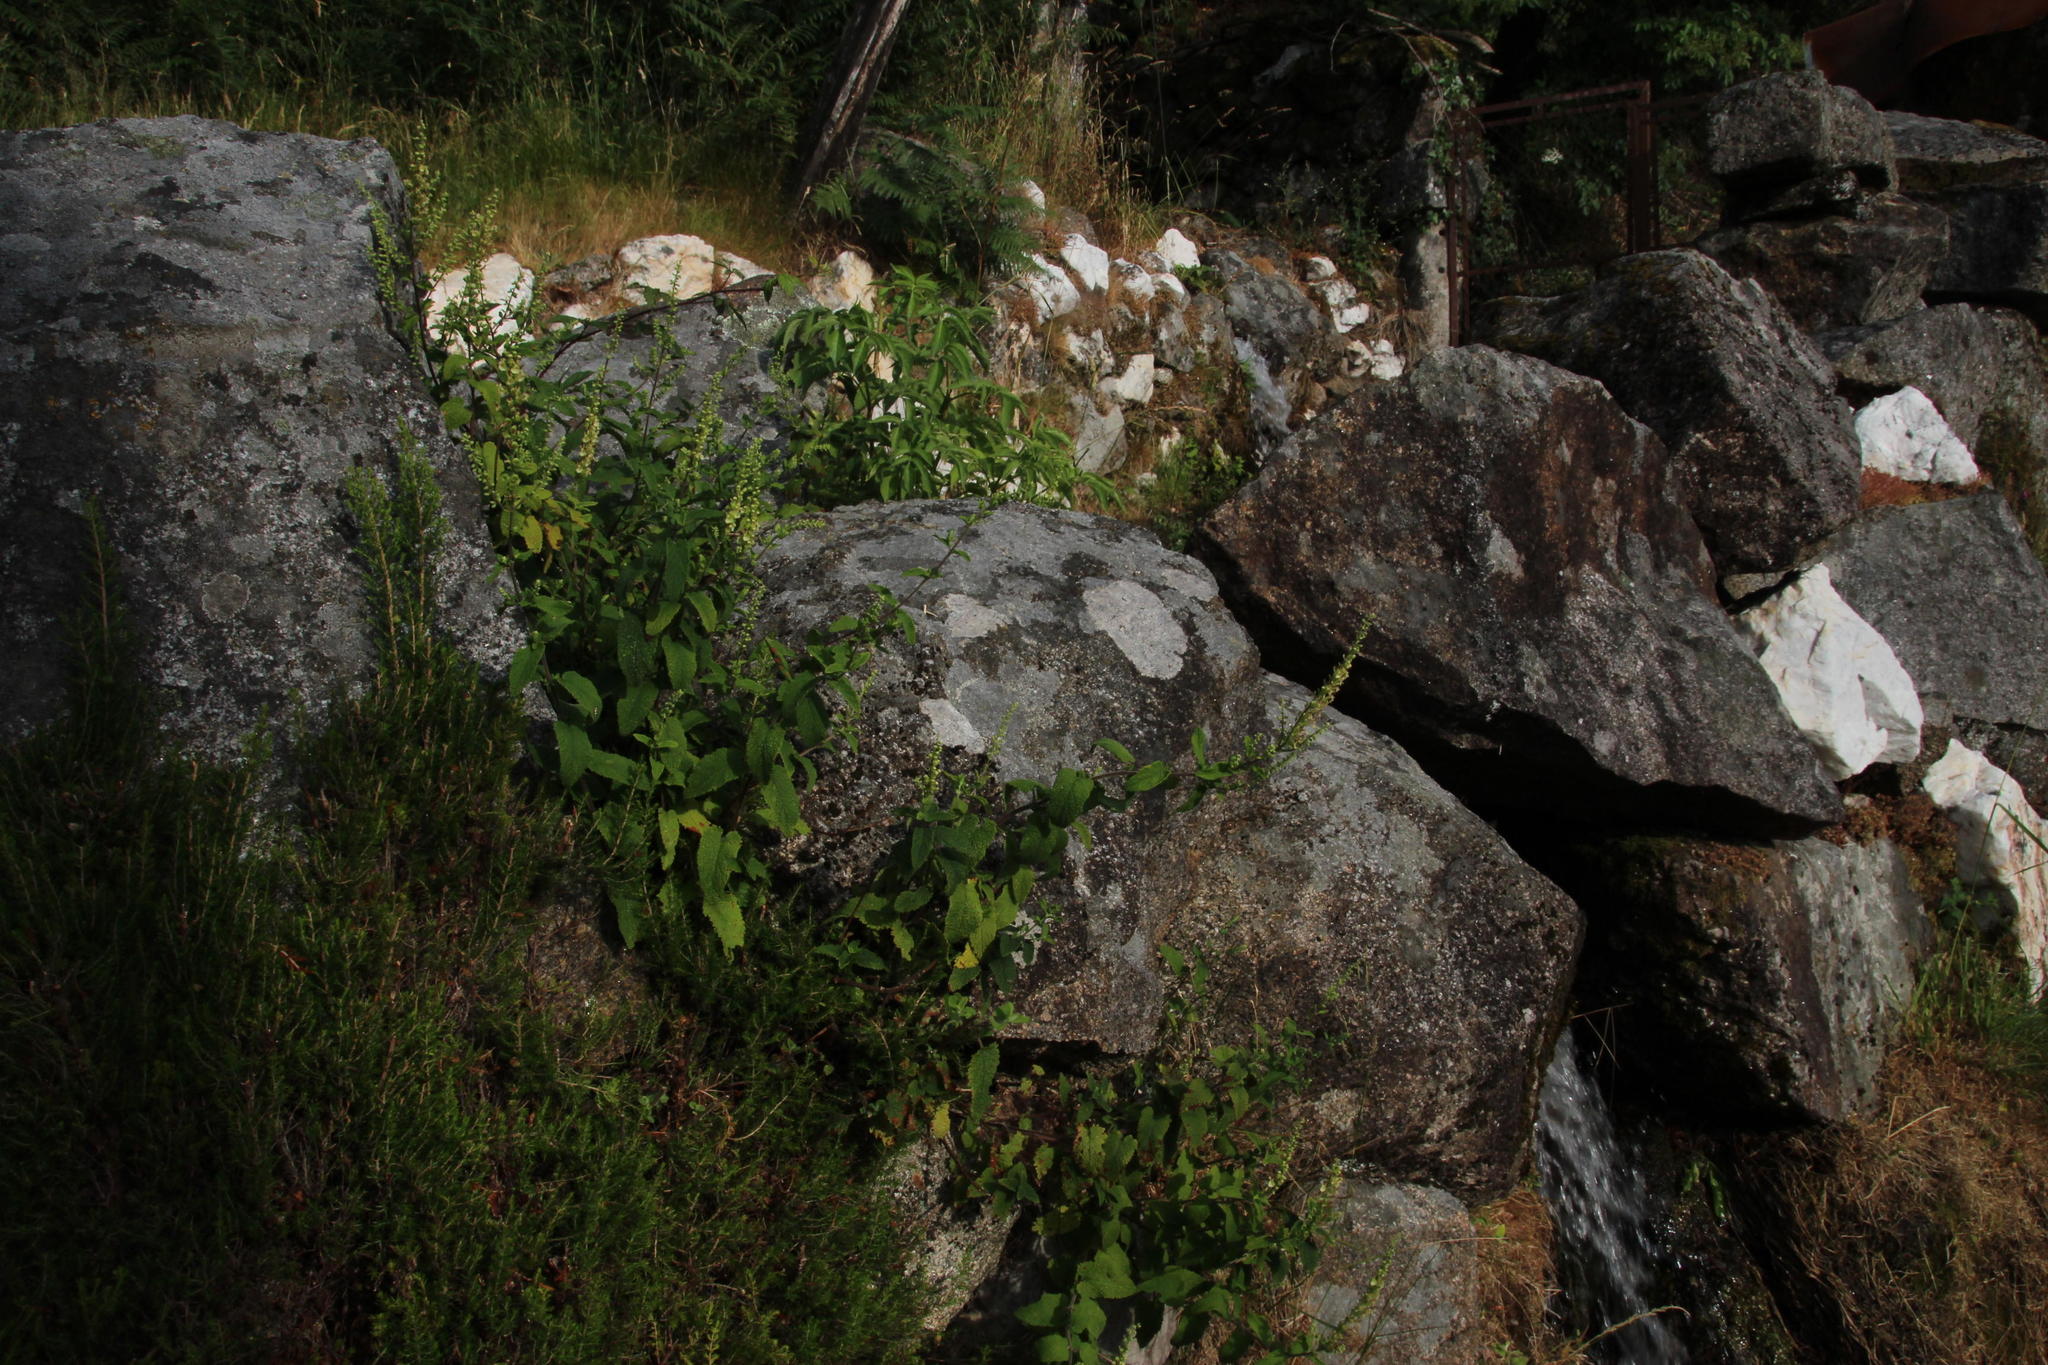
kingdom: Plantae
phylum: Tracheophyta
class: Magnoliopsida
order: Lamiales
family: Lamiaceae
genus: Teucrium
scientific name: Teucrium scorodonia
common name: Woodland germander
